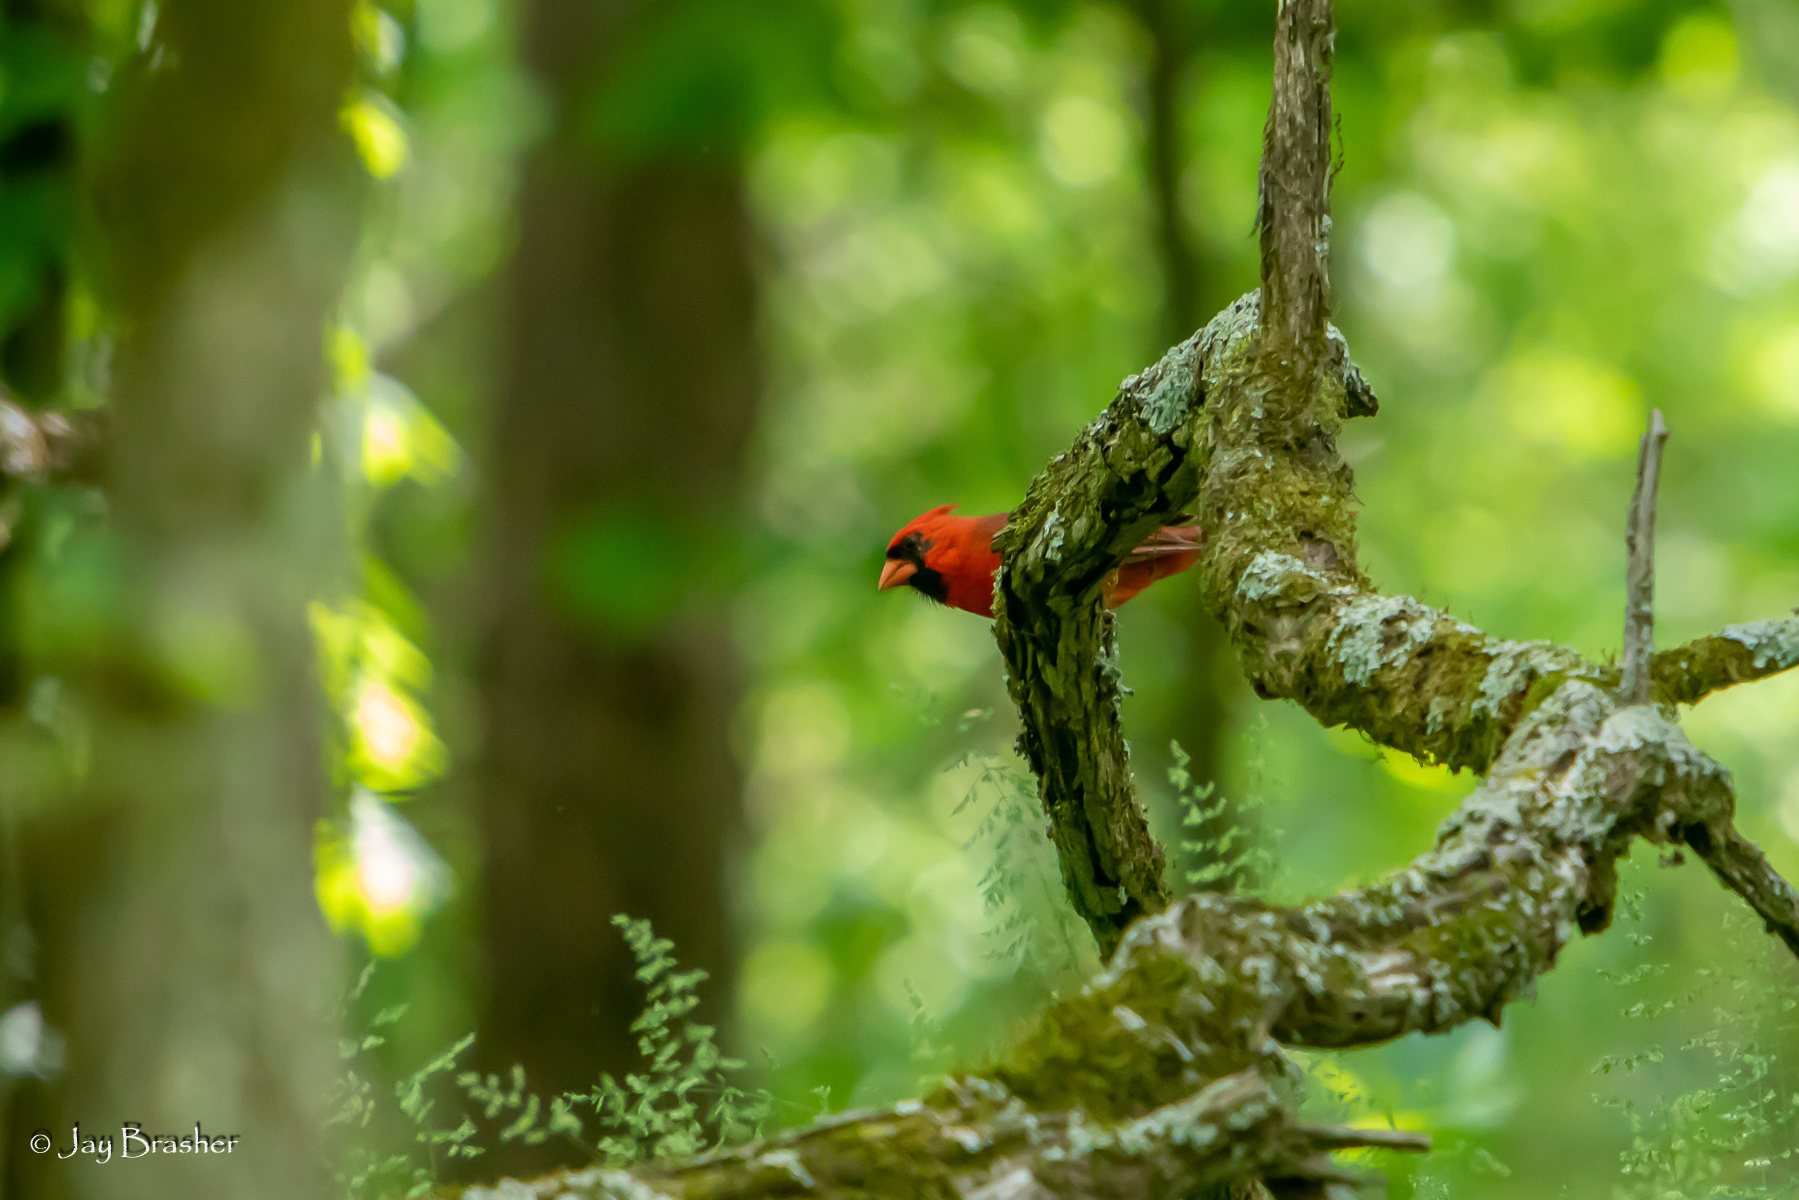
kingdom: Animalia
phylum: Chordata
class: Aves
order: Passeriformes
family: Cardinalidae
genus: Cardinalis
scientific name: Cardinalis cardinalis
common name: Northern cardinal
